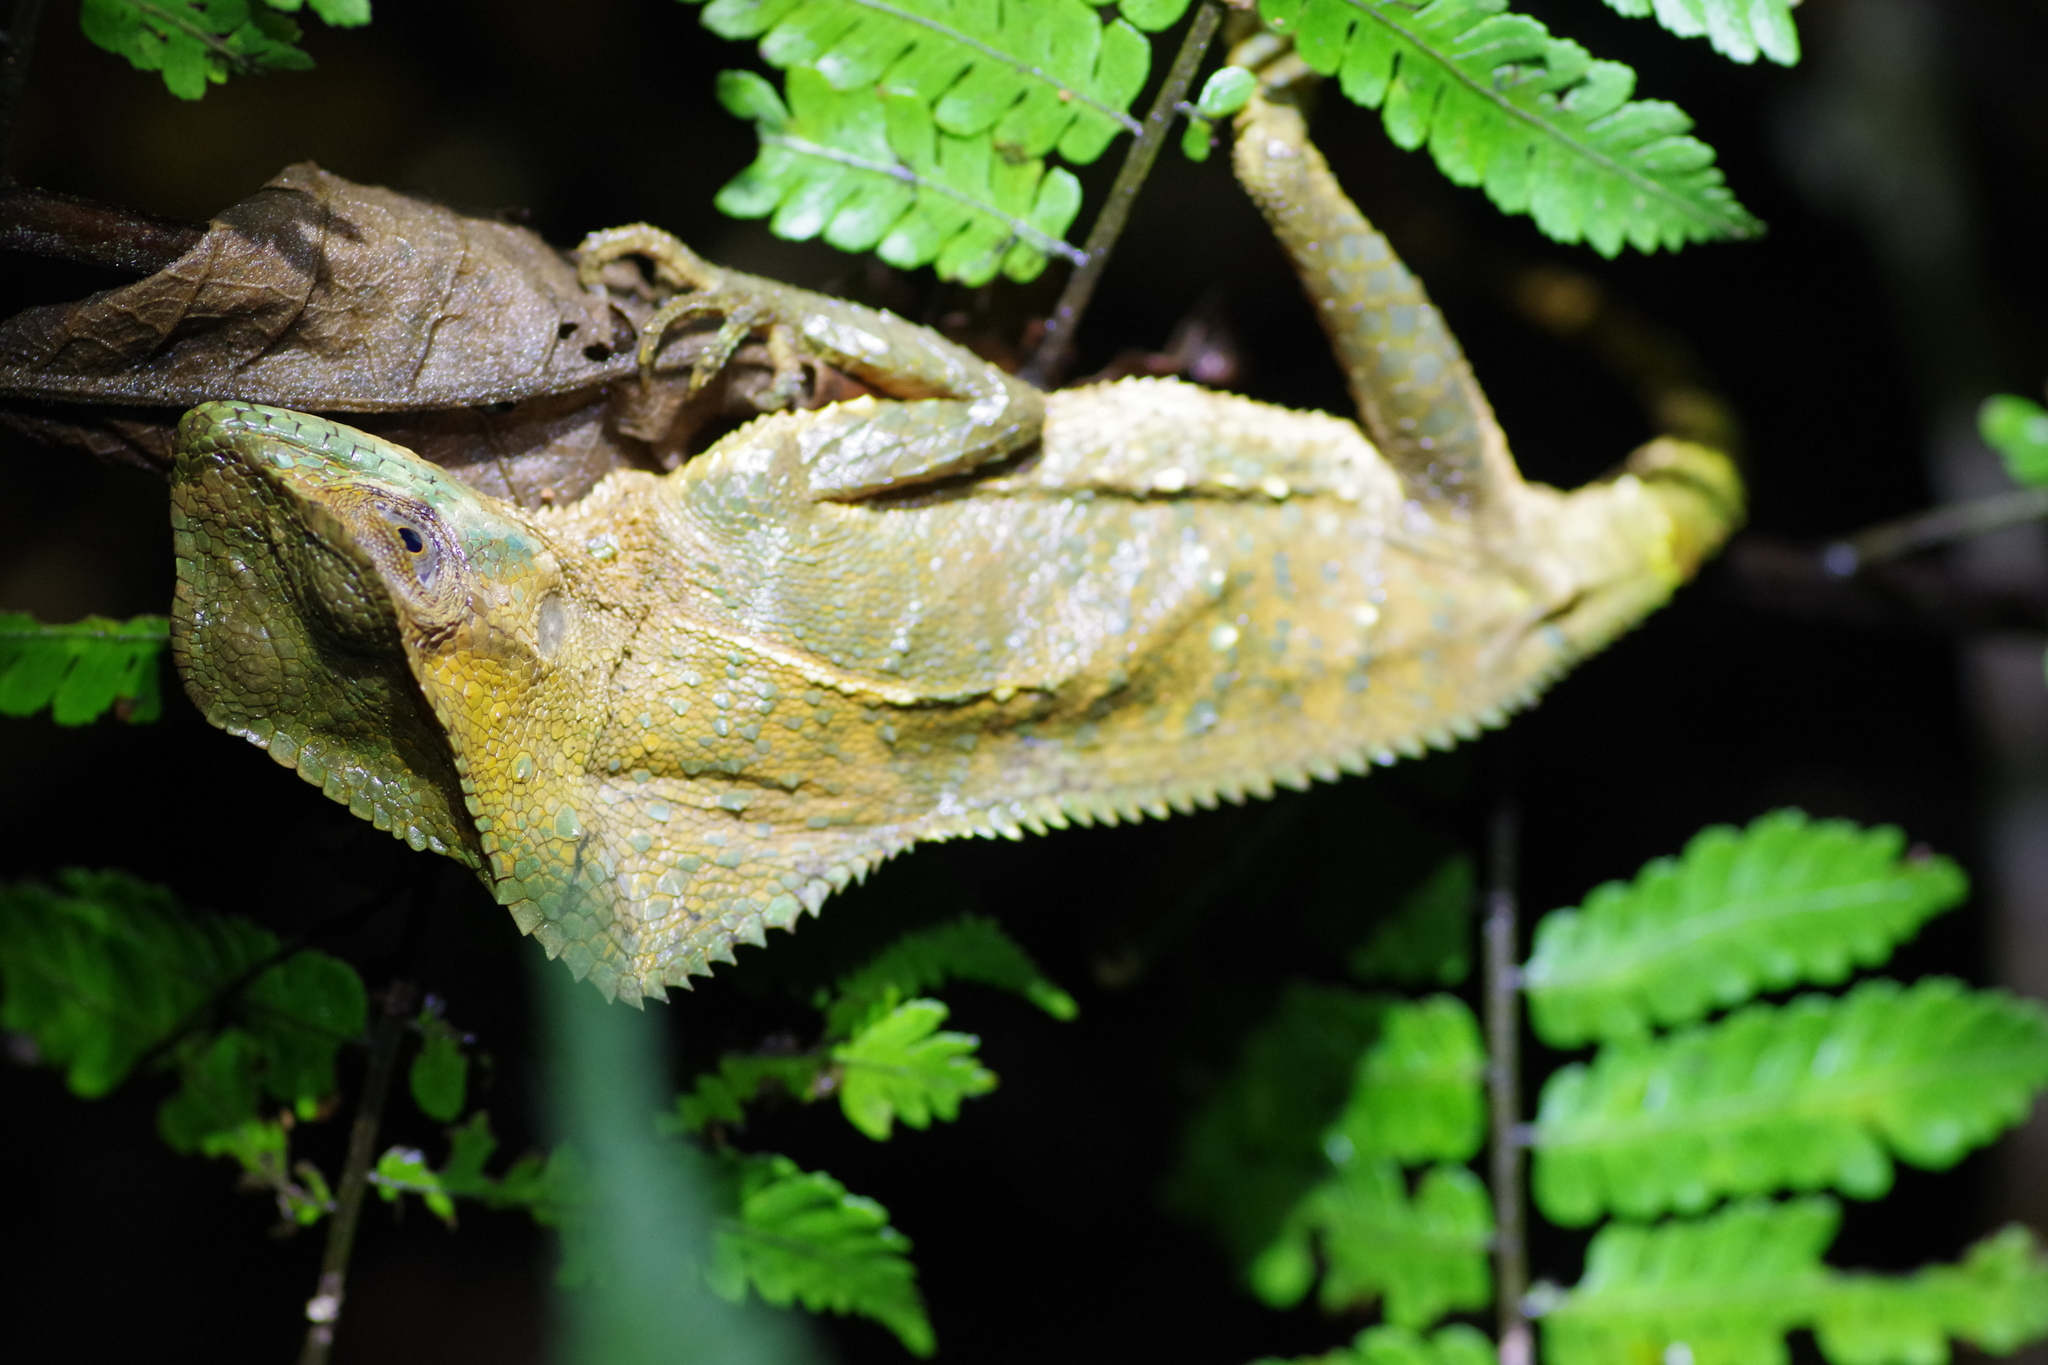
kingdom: Animalia
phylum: Chordata
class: Squamata
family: Corytophanidae
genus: Corytophanes
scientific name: Corytophanes cristatus
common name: Smooth helmeted iguana
